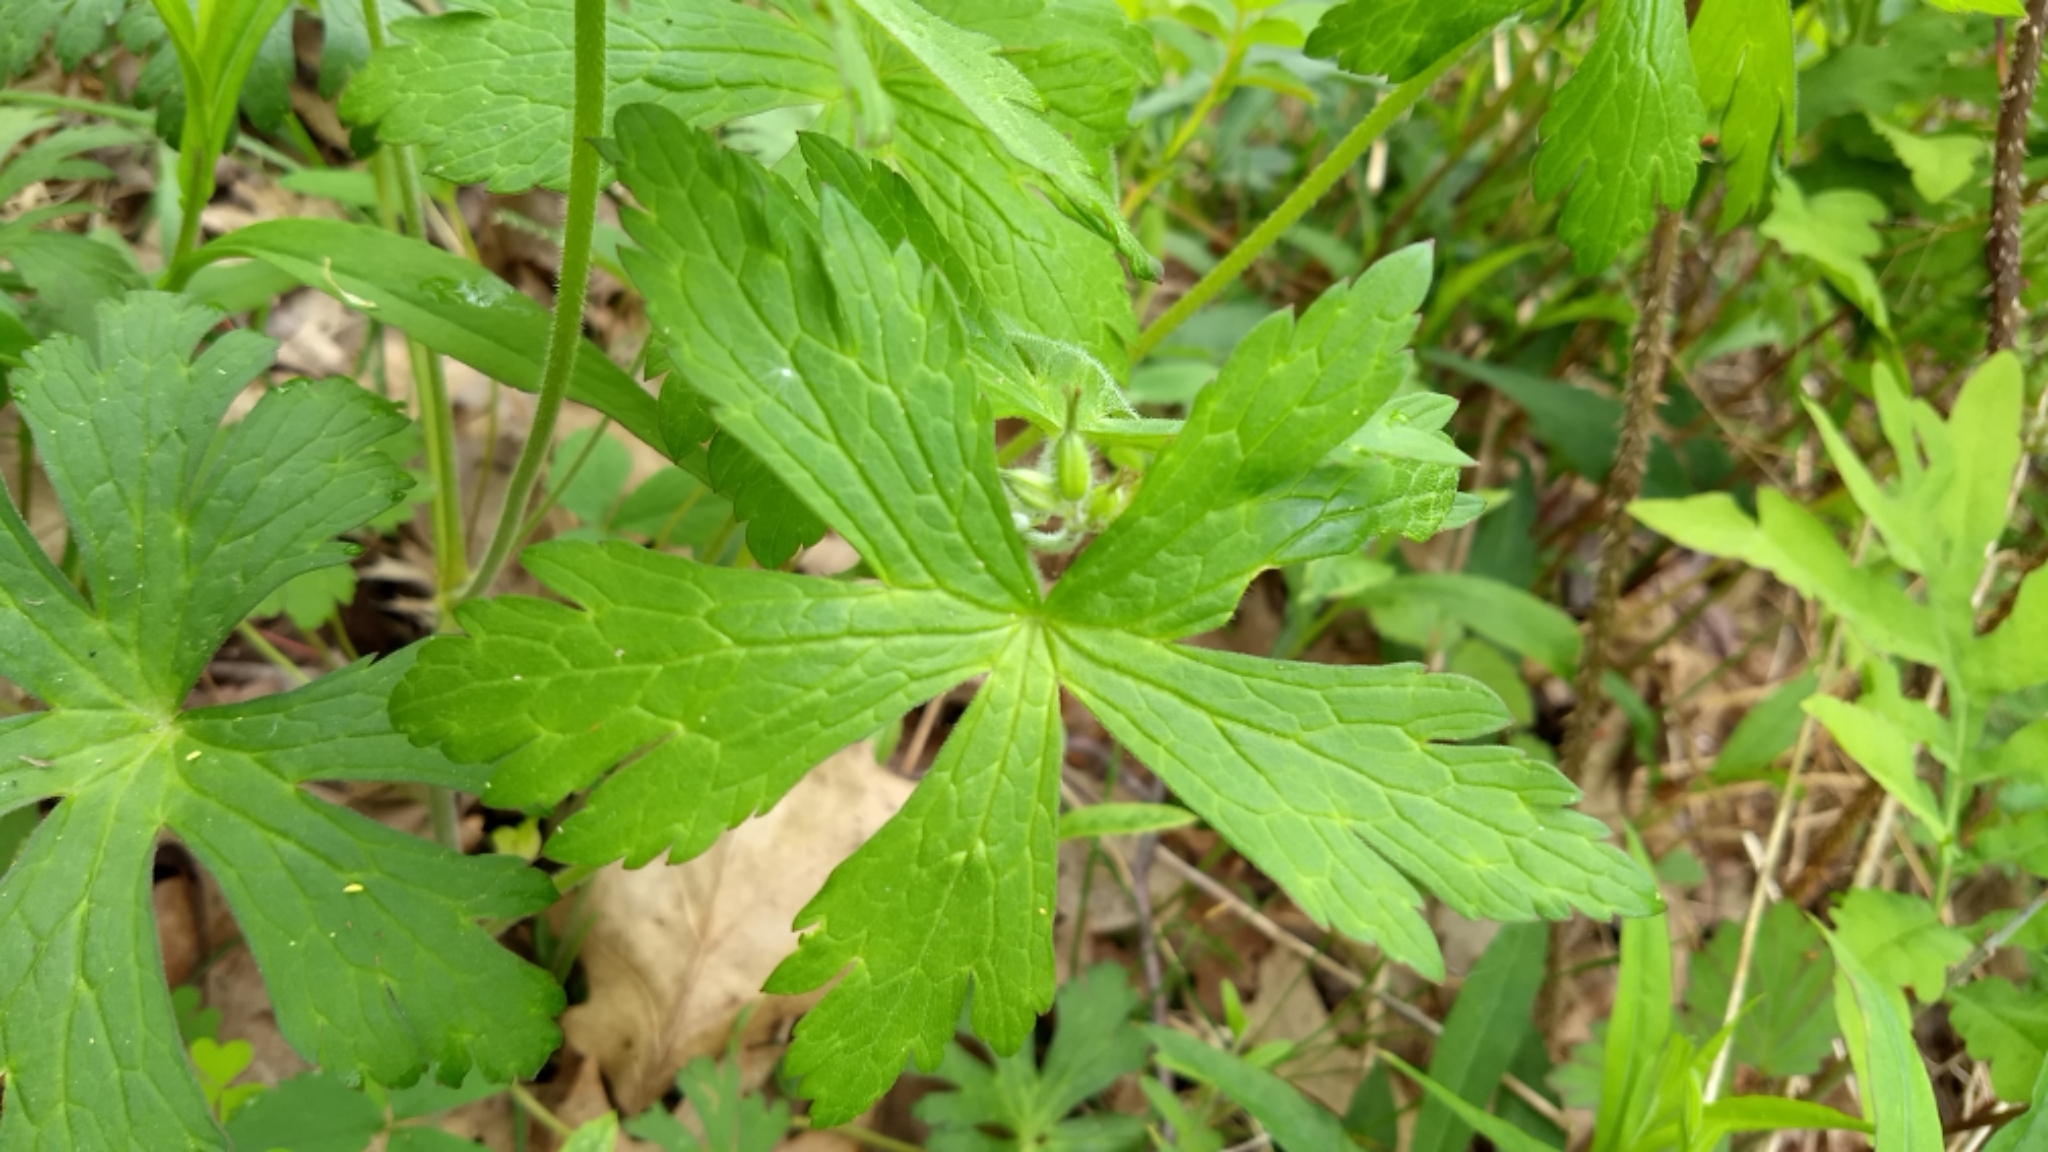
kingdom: Plantae
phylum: Tracheophyta
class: Magnoliopsida
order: Geraniales
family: Geraniaceae
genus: Geranium
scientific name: Geranium maculatum
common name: Spotted geranium
